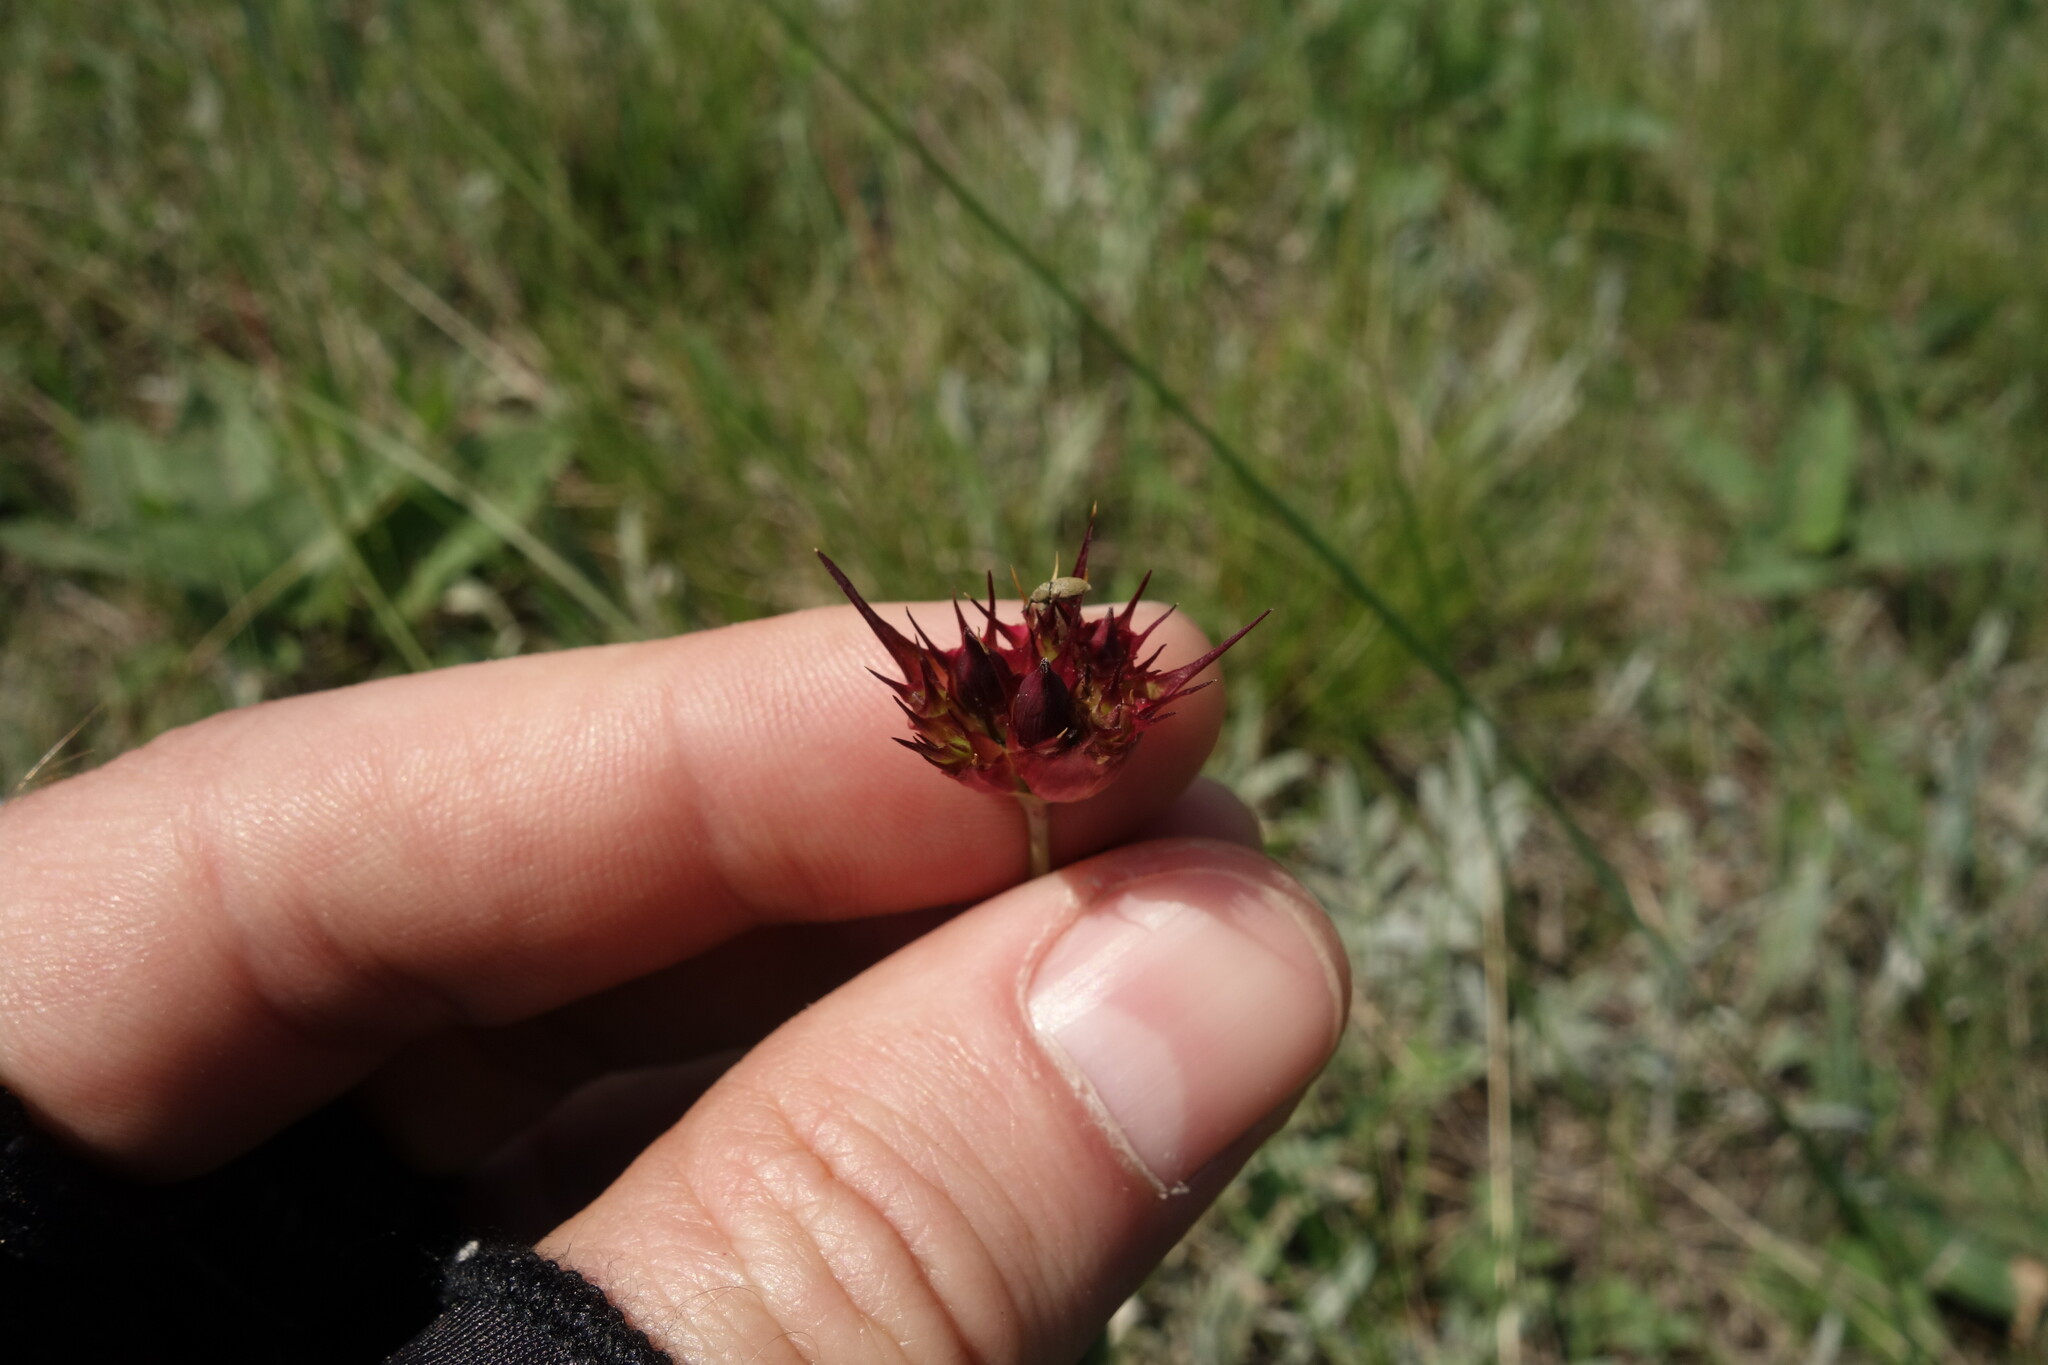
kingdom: Plantae
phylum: Tracheophyta
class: Magnoliopsida
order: Caryophyllales
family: Caryophyllaceae
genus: Dianthus
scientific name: Dianthus capitatus
